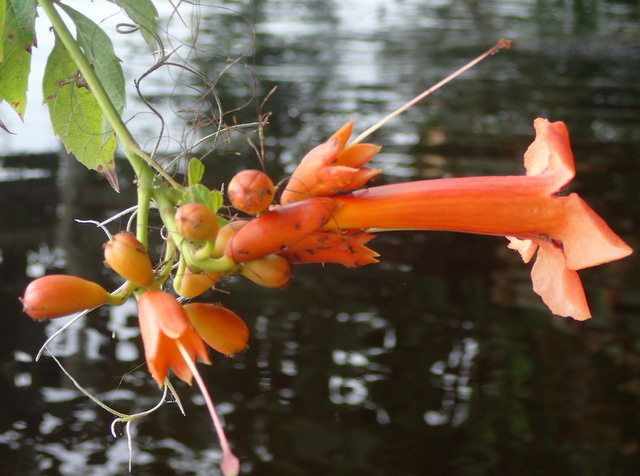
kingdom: Plantae
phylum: Tracheophyta
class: Magnoliopsida
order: Lamiales
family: Bignoniaceae
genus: Campsis
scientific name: Campsis radicans
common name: Trumpet-creeper
